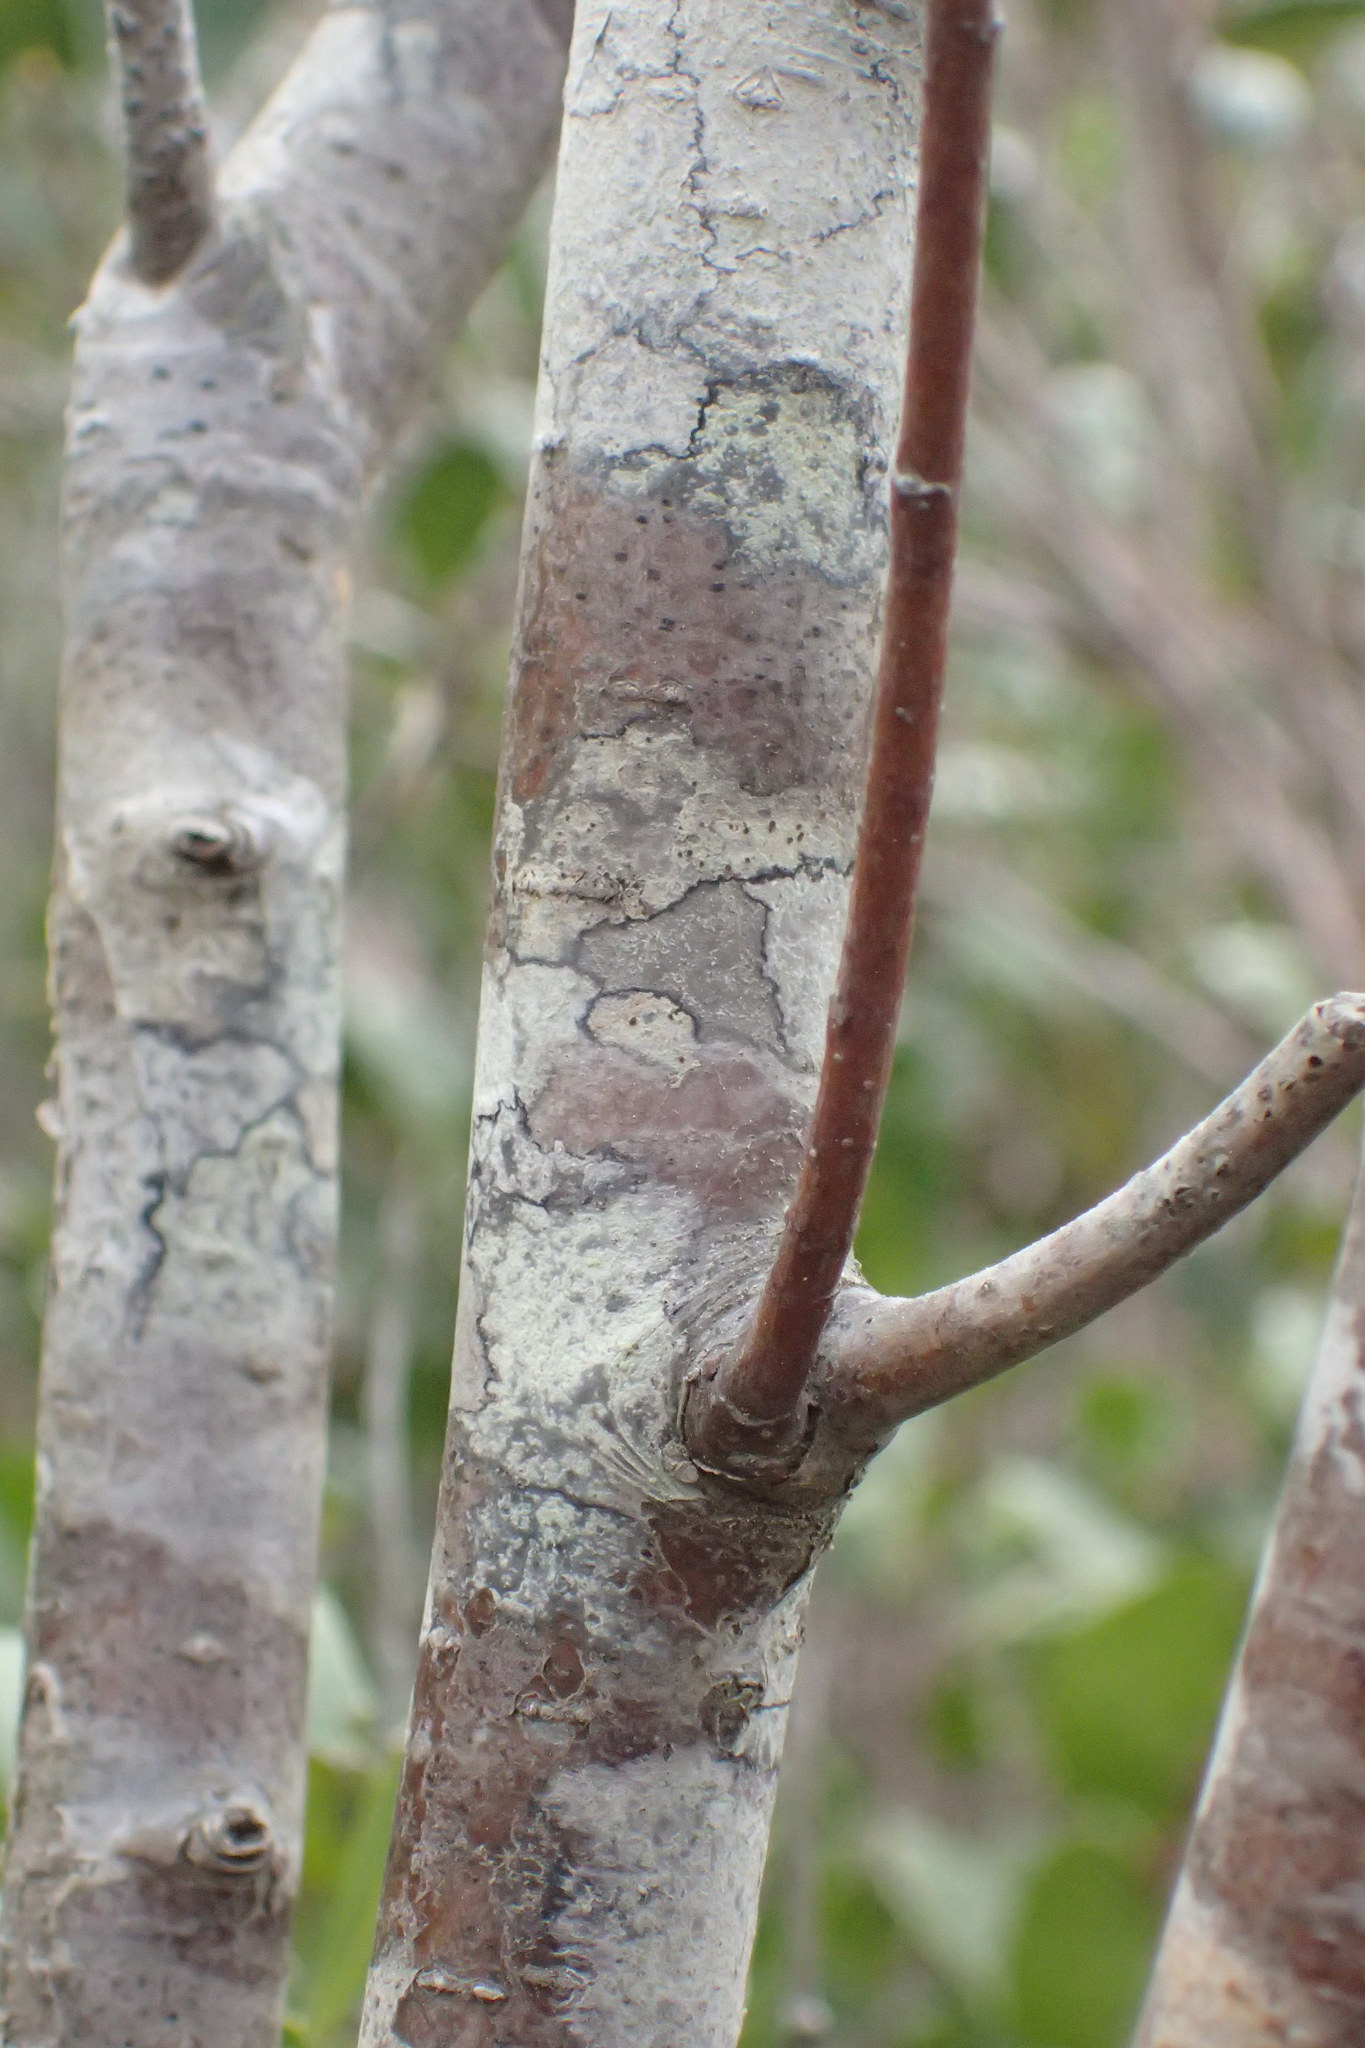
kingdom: Plantae
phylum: Tracheophyta
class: Magnoliopsida
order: Rosales
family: Rosaceae
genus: Aronia
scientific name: Aronia arbutifolia
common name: Red chokeberry
